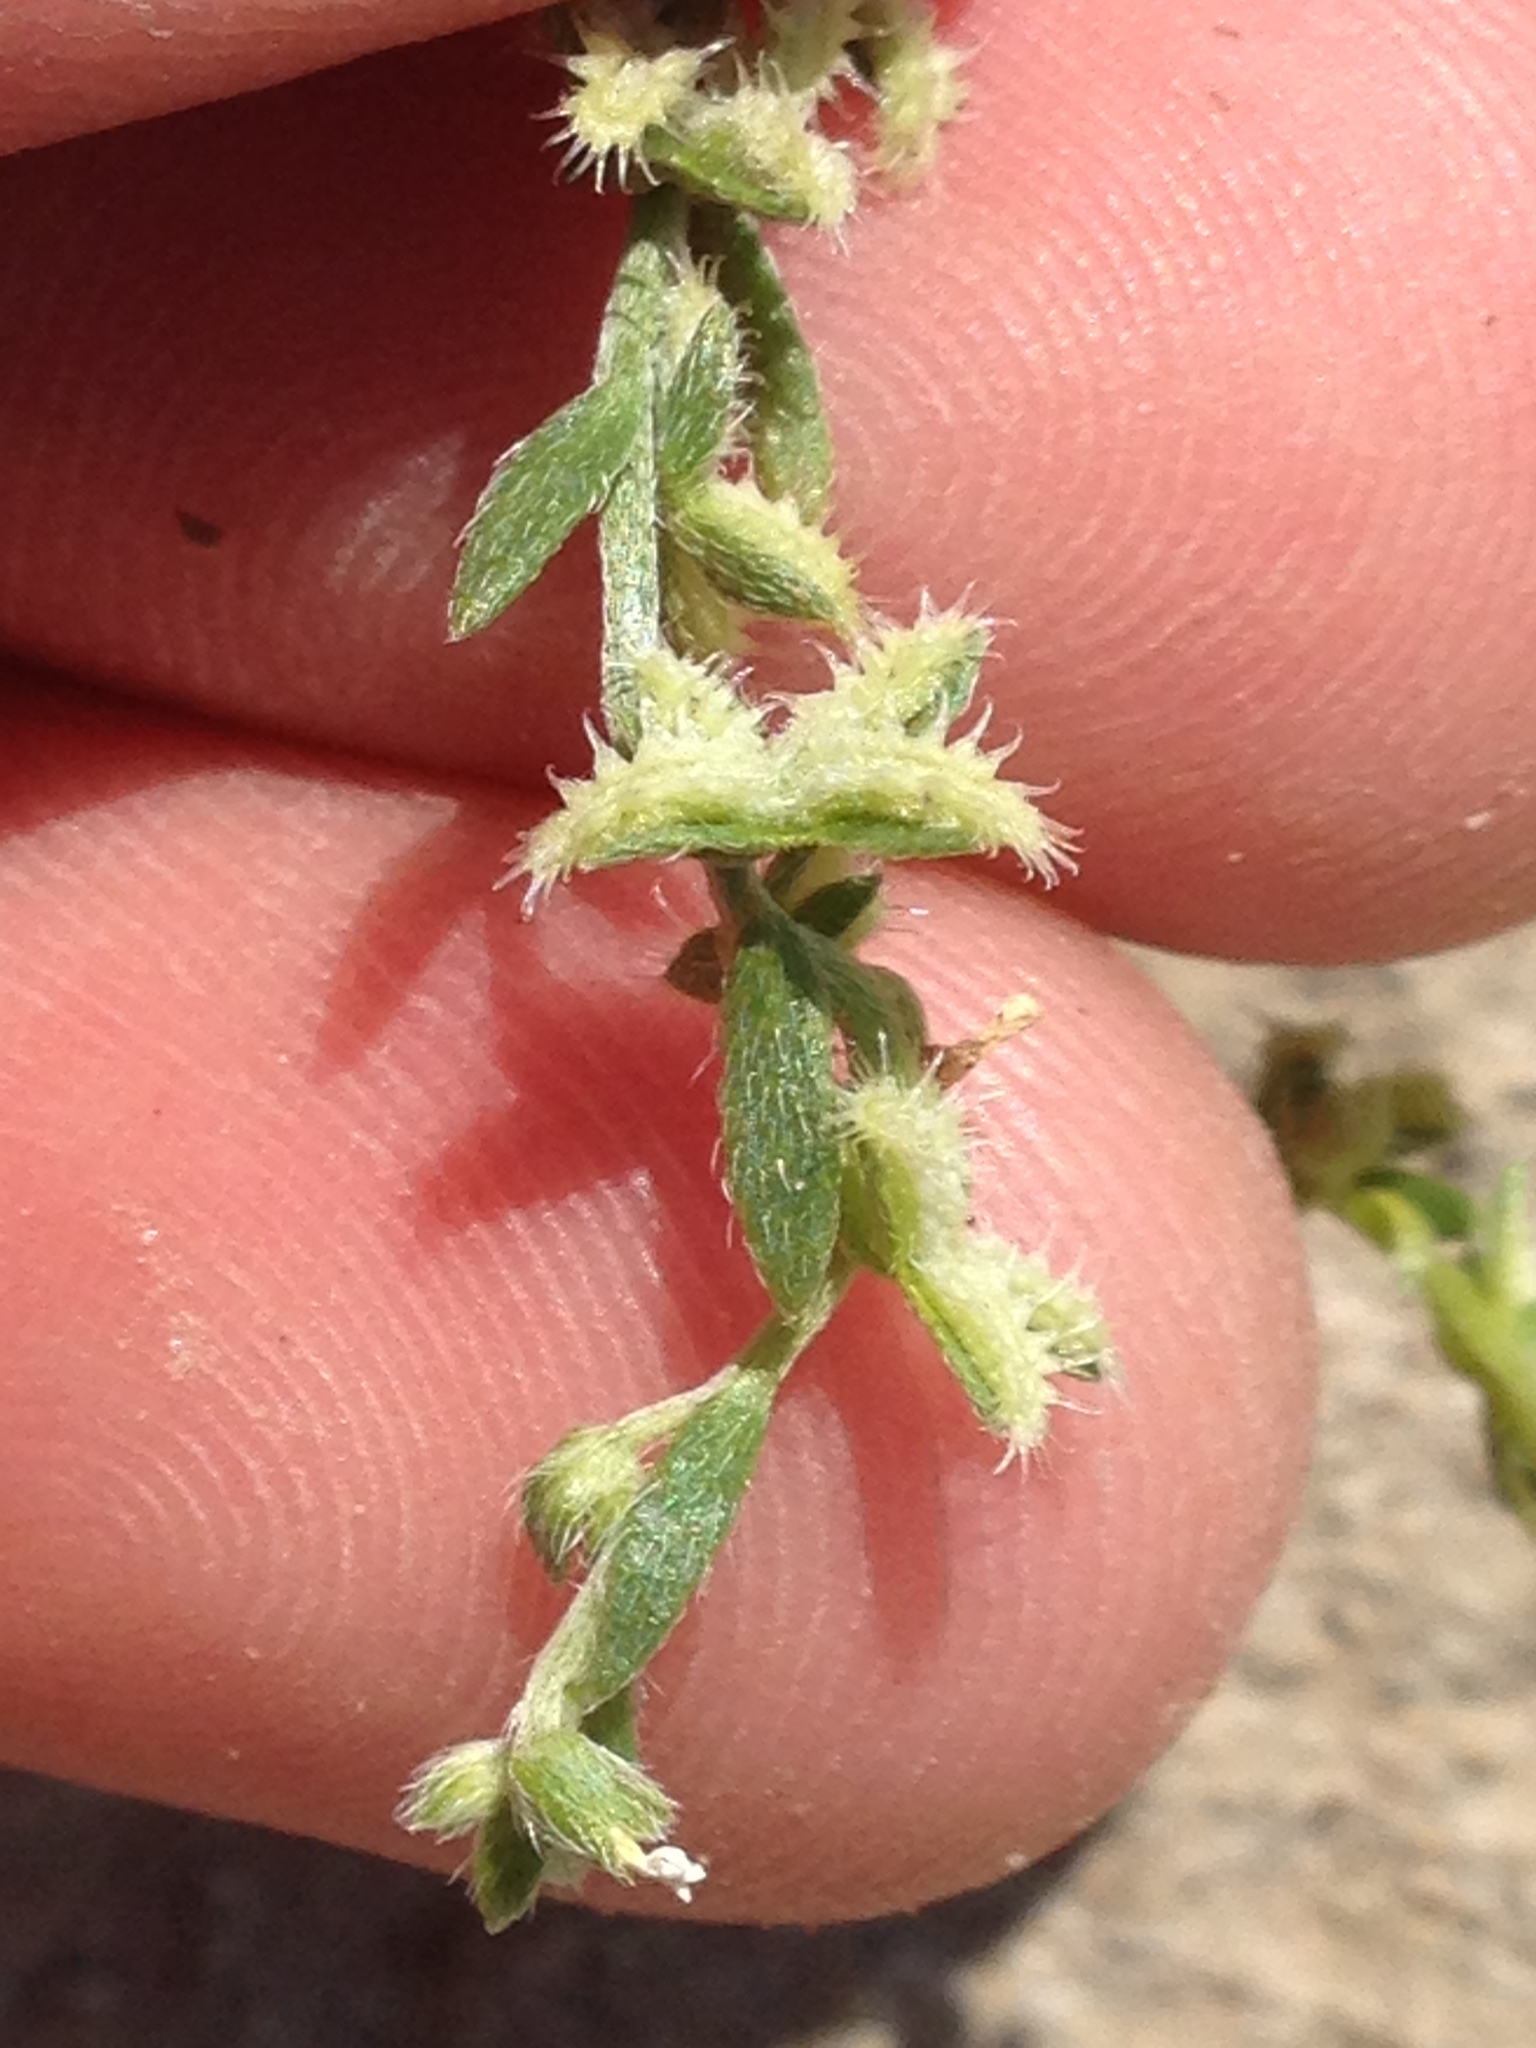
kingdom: Plantae
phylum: Tracheophyta
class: Magnoliopsida
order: Boraginales
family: Boraginaceae
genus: Pectocarya
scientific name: Pectocarya linearis
